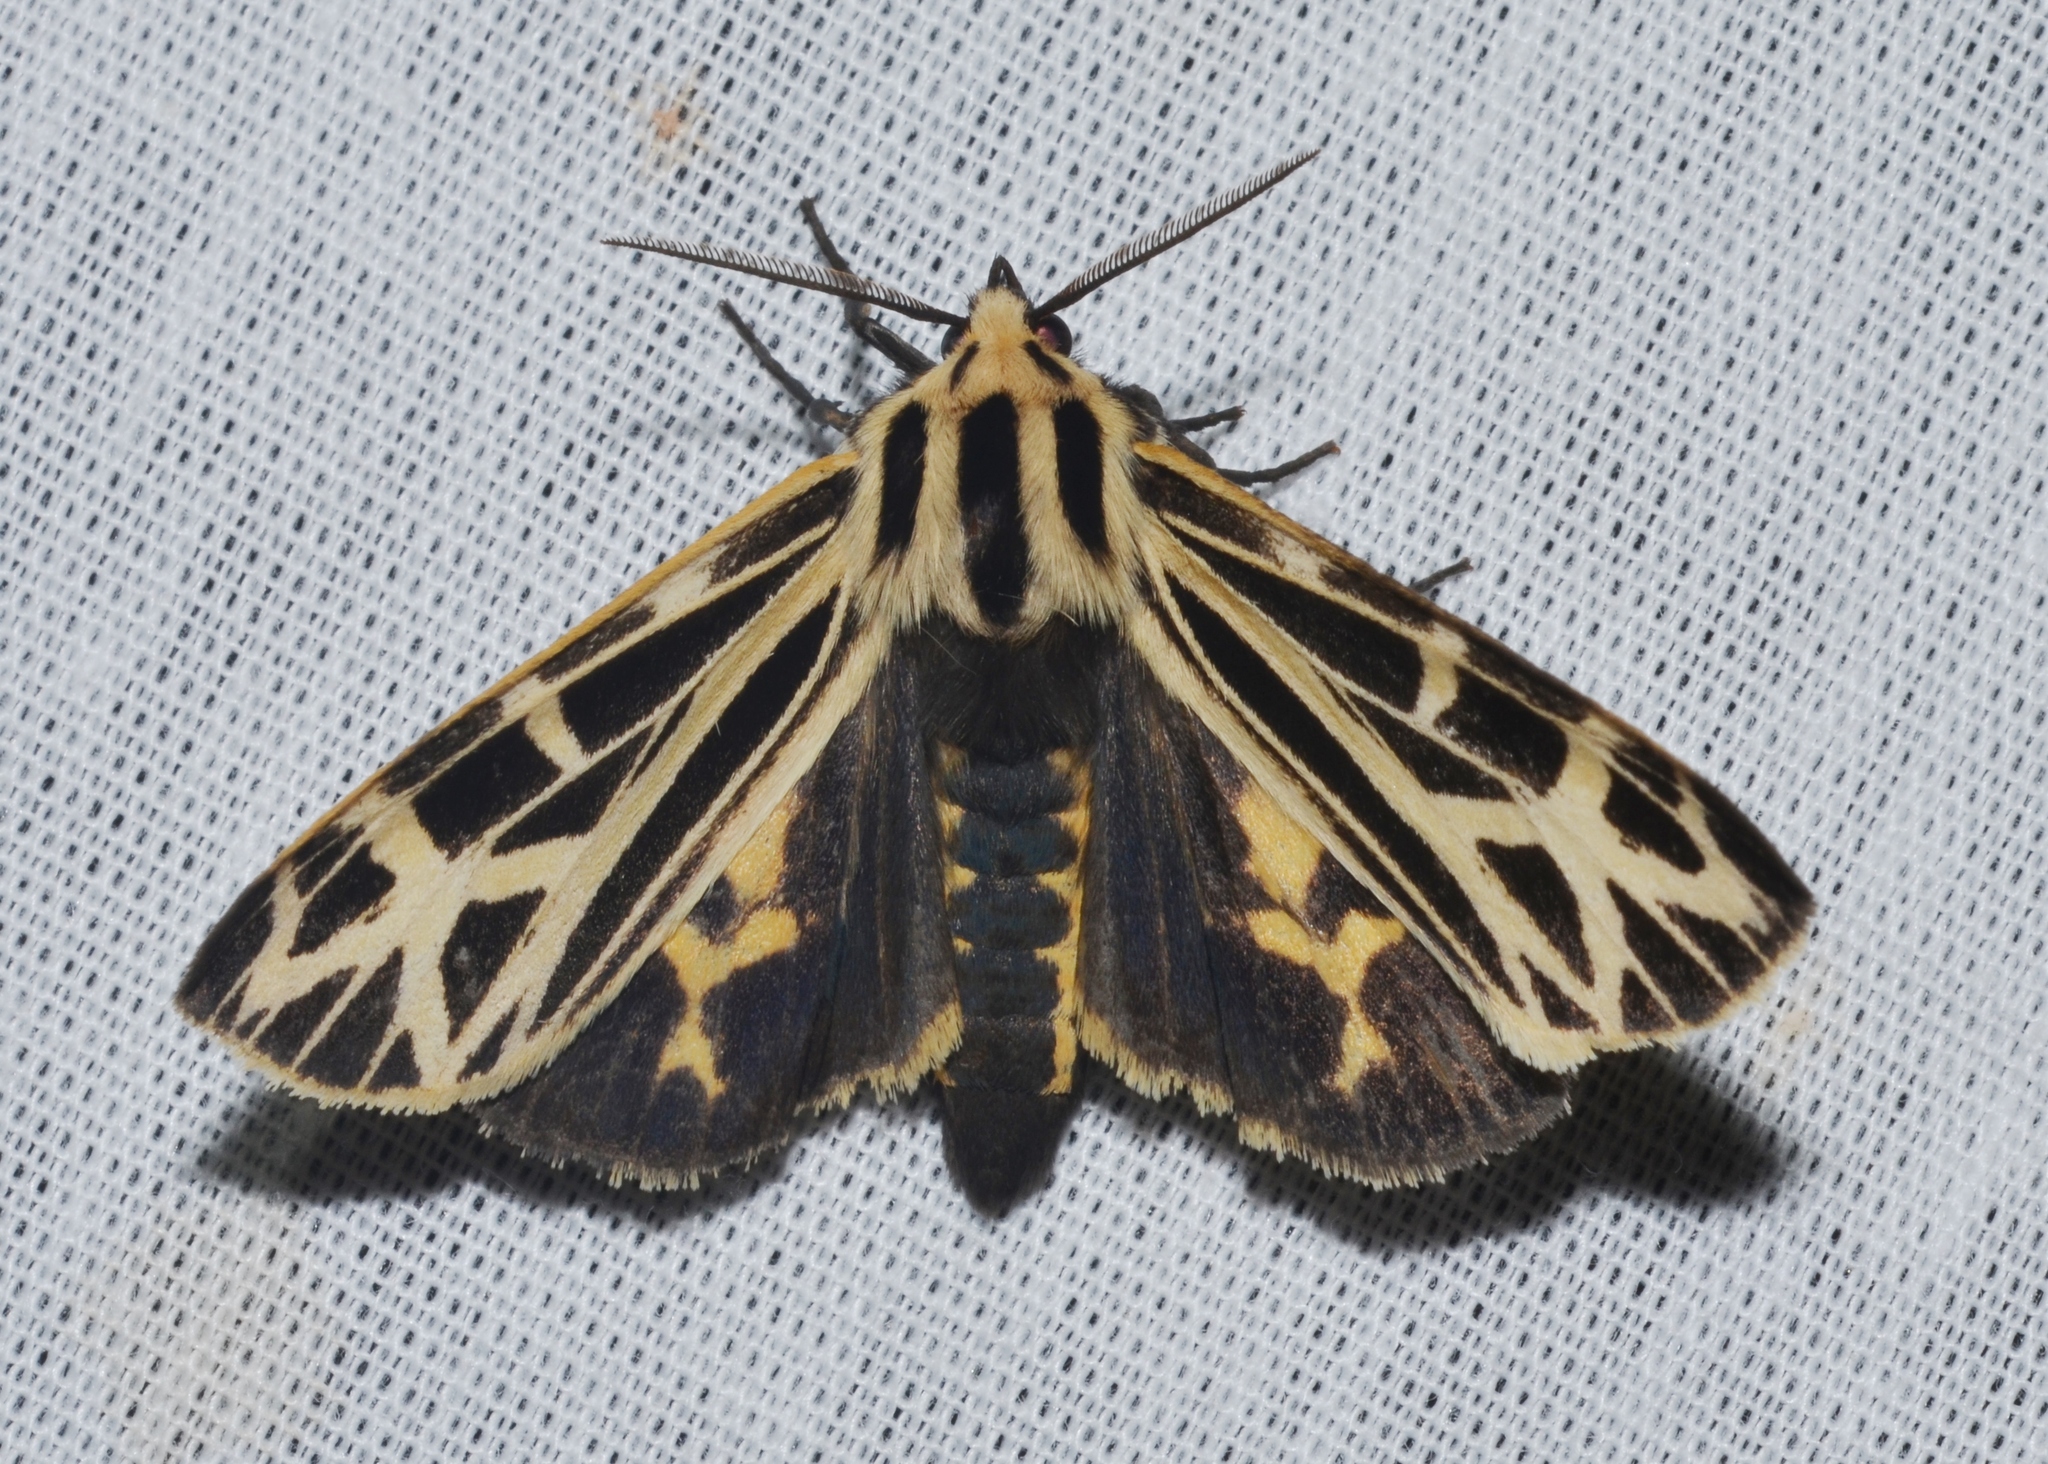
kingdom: Animalia
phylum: Arthropoda
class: Insecta
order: Lepidoptera
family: Erebidae
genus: Apantesis
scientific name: Apantesis
